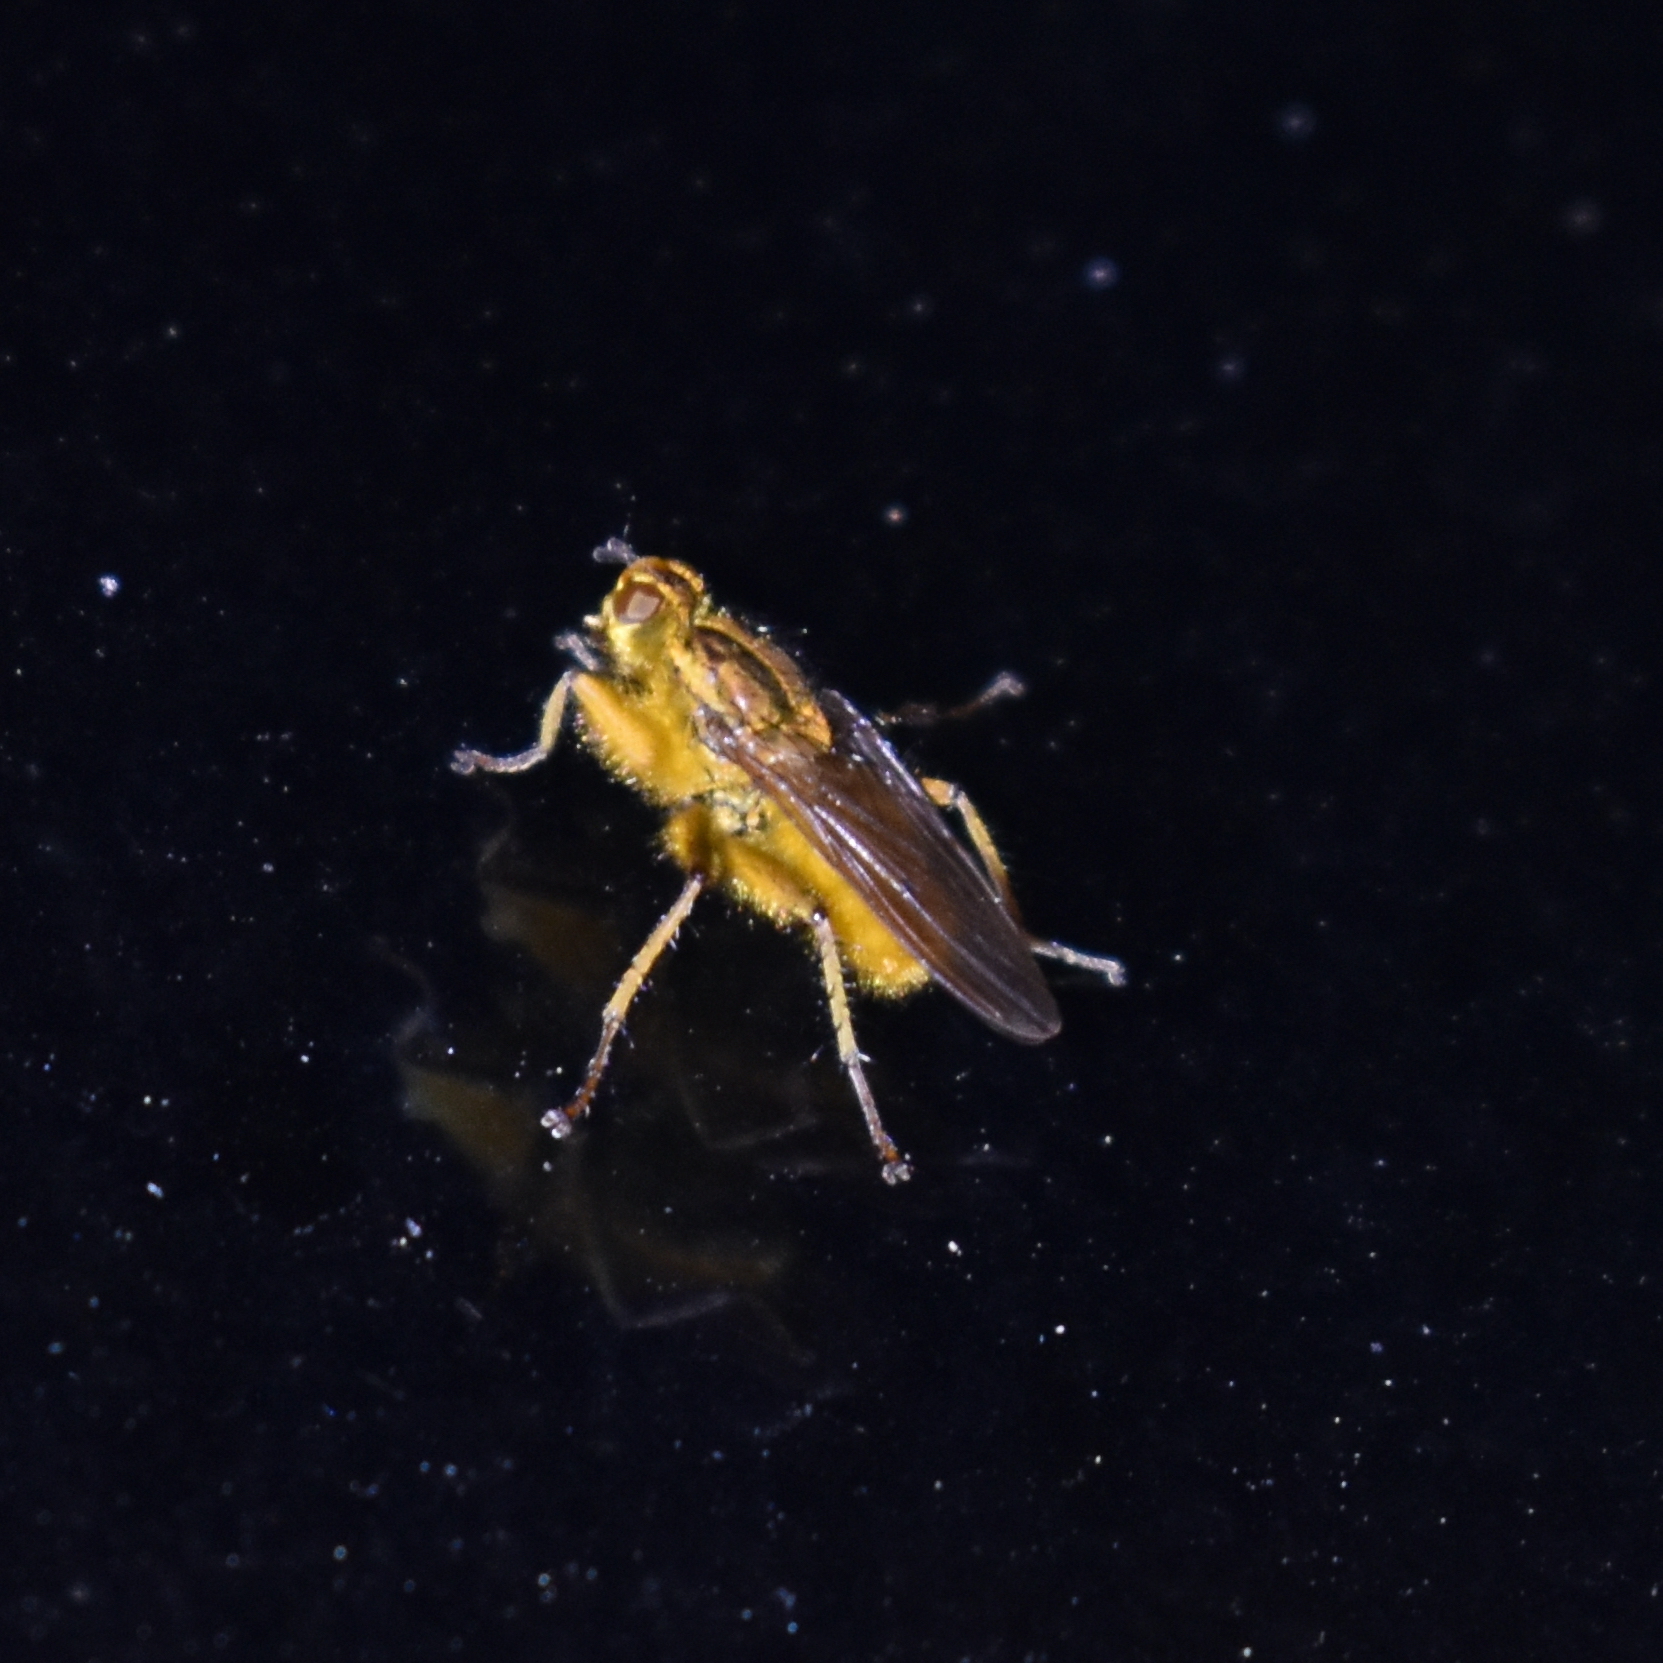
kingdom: Animalia
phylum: Arthropoda
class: Insecta
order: Diptera
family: Scathophagidae
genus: Scathophaga
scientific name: Scathophaga stercoraria
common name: Yellow dung fly
